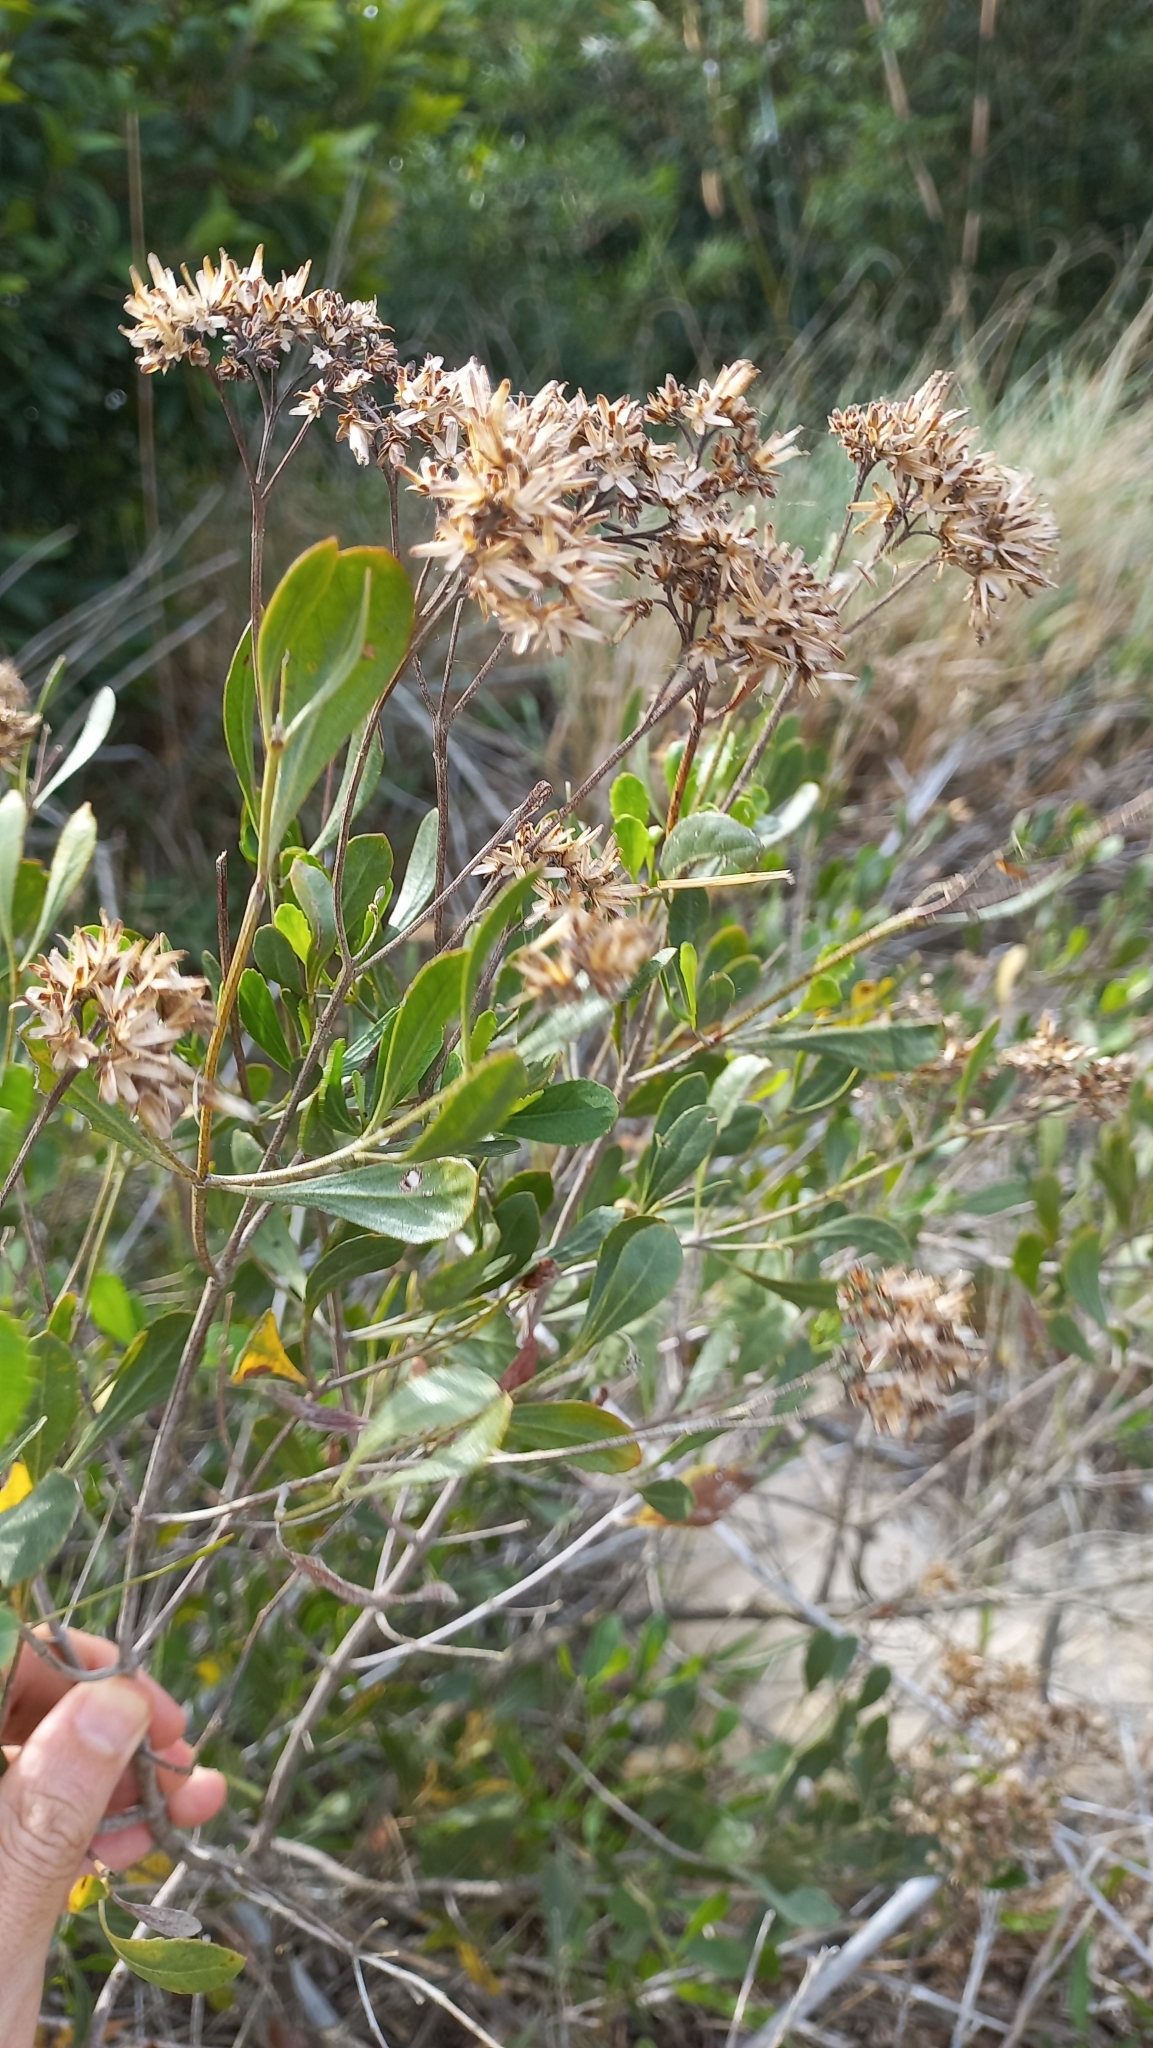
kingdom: Plantae
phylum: Tracheophyta
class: Magnoliopsida
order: Asterales
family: Asteraceae
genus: Symphyopappus
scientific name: Symphyopappus casarettoi
